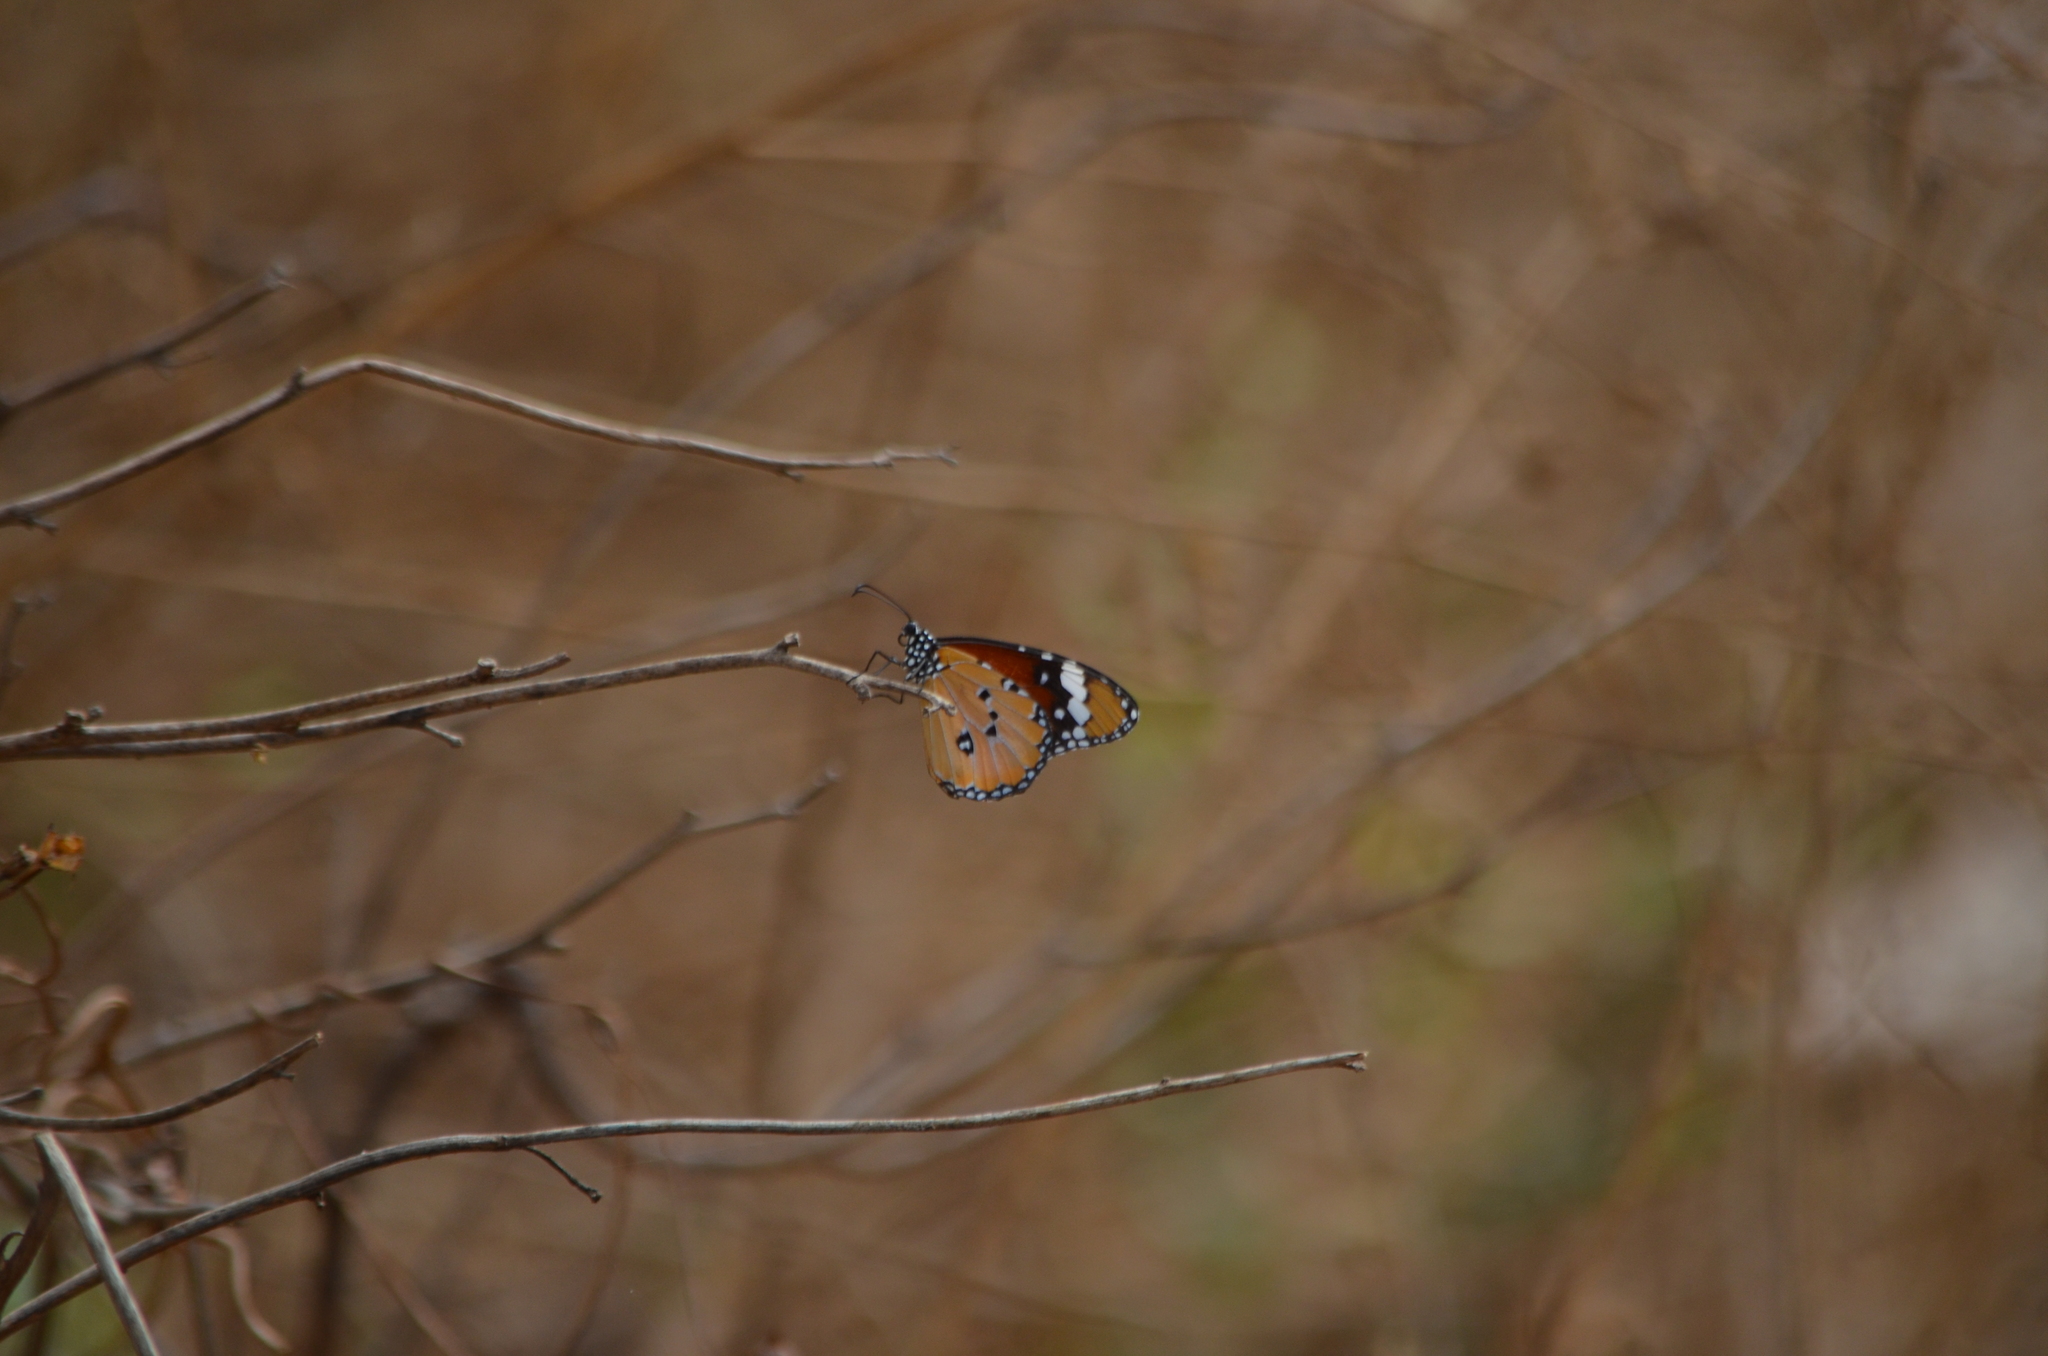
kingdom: Animalia
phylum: Arthropoda
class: Insecta
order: Lepidoptera
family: Nymphalidae
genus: Danaus
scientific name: Danaus chrysippus
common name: Plain tiger
